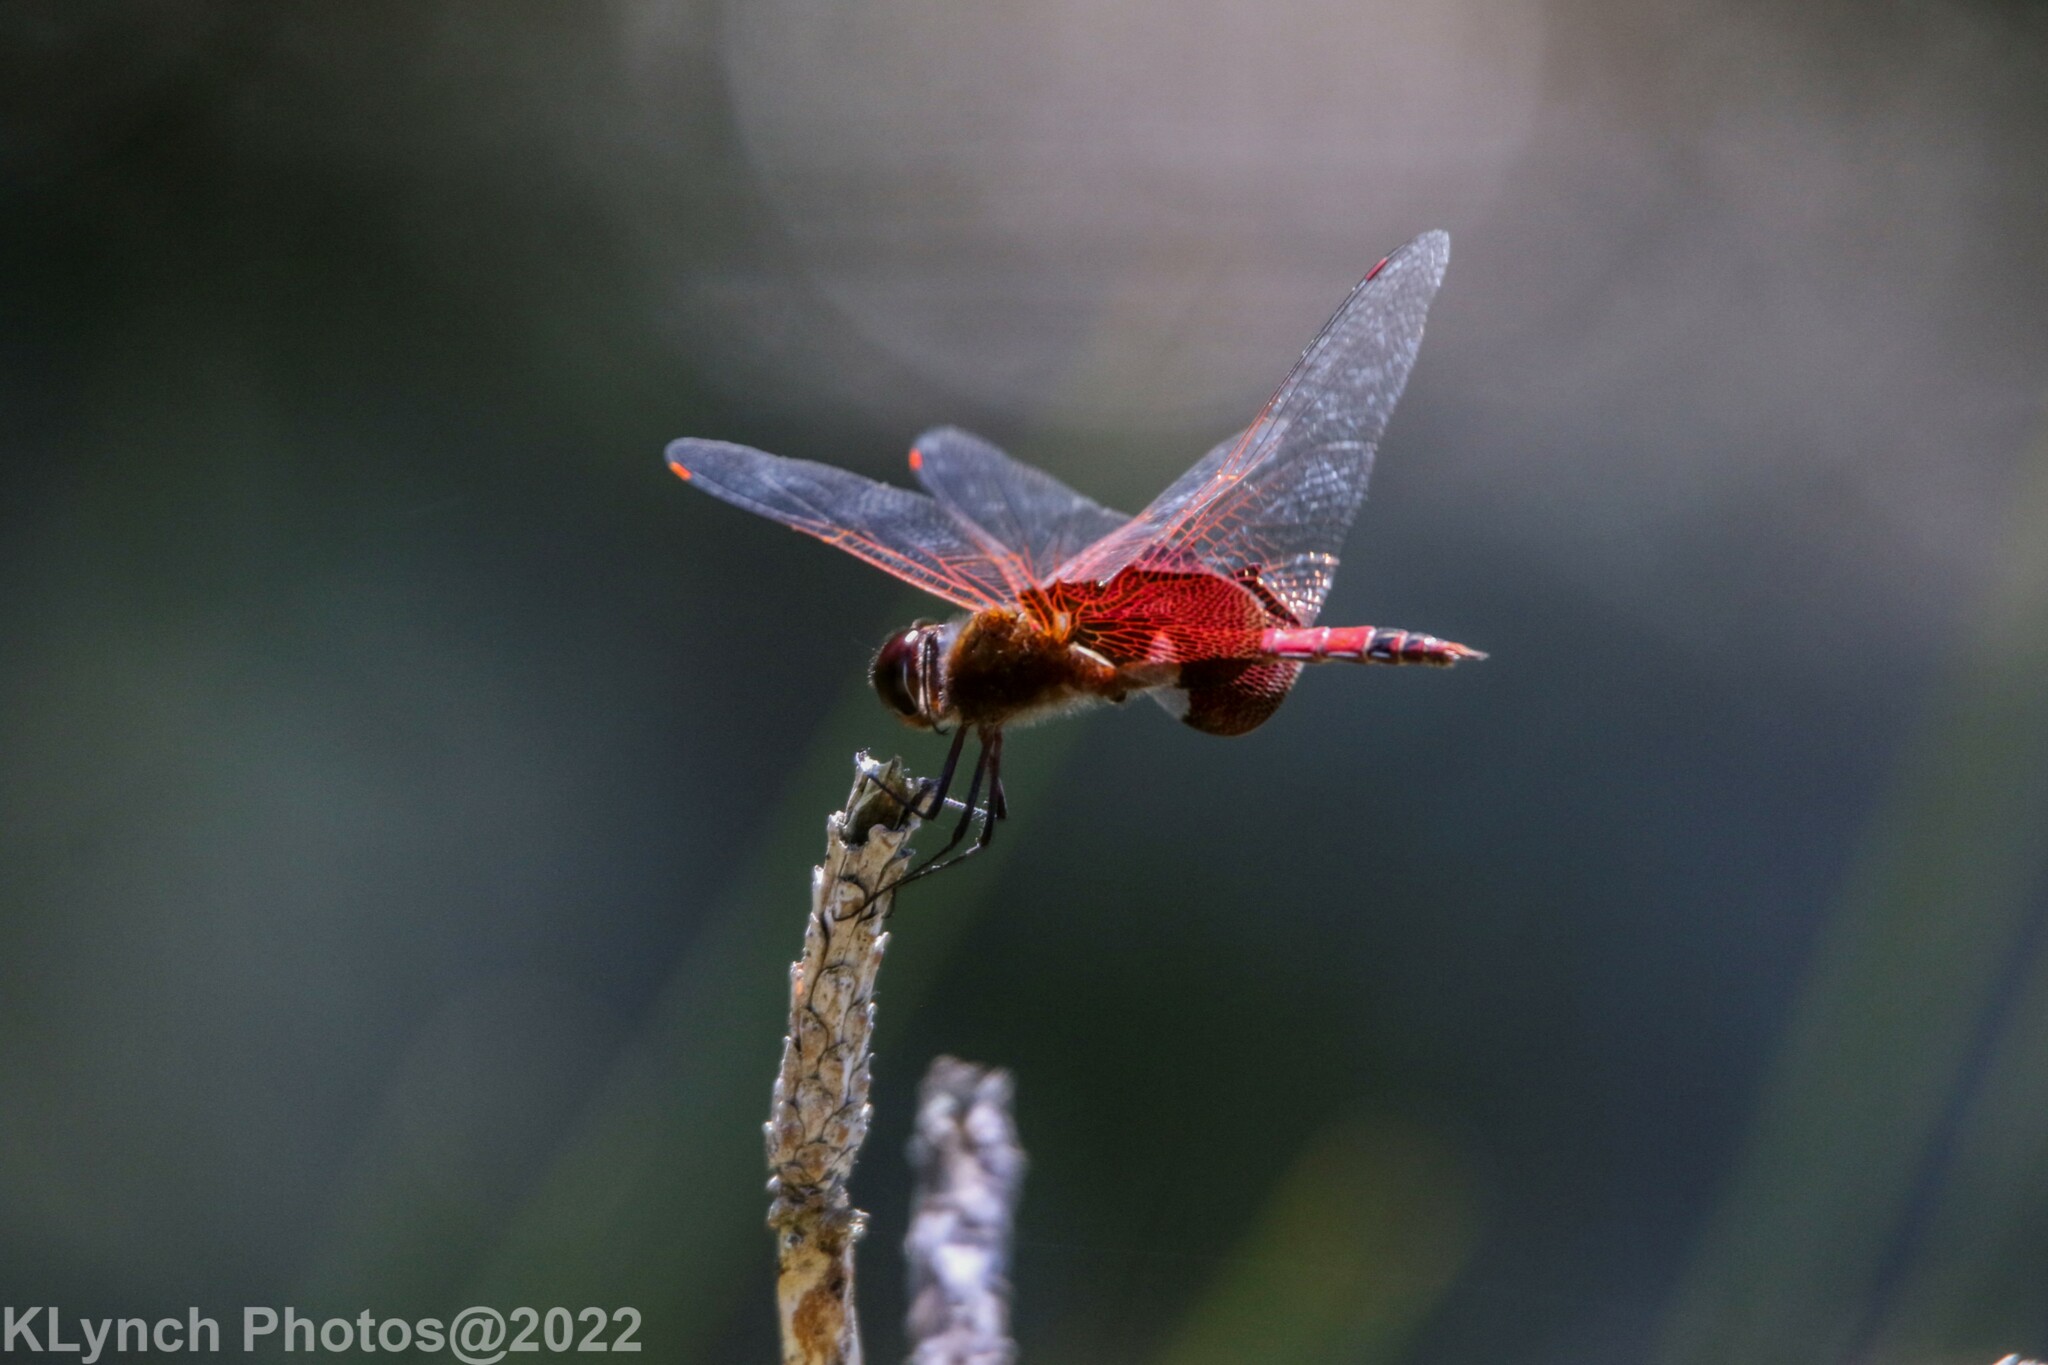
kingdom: Animalia
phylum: Arthropoda
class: Insecta
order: Odonata
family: Libellulidae
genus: Tramea
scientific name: Tramea carolina
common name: Carolina saddlebags
